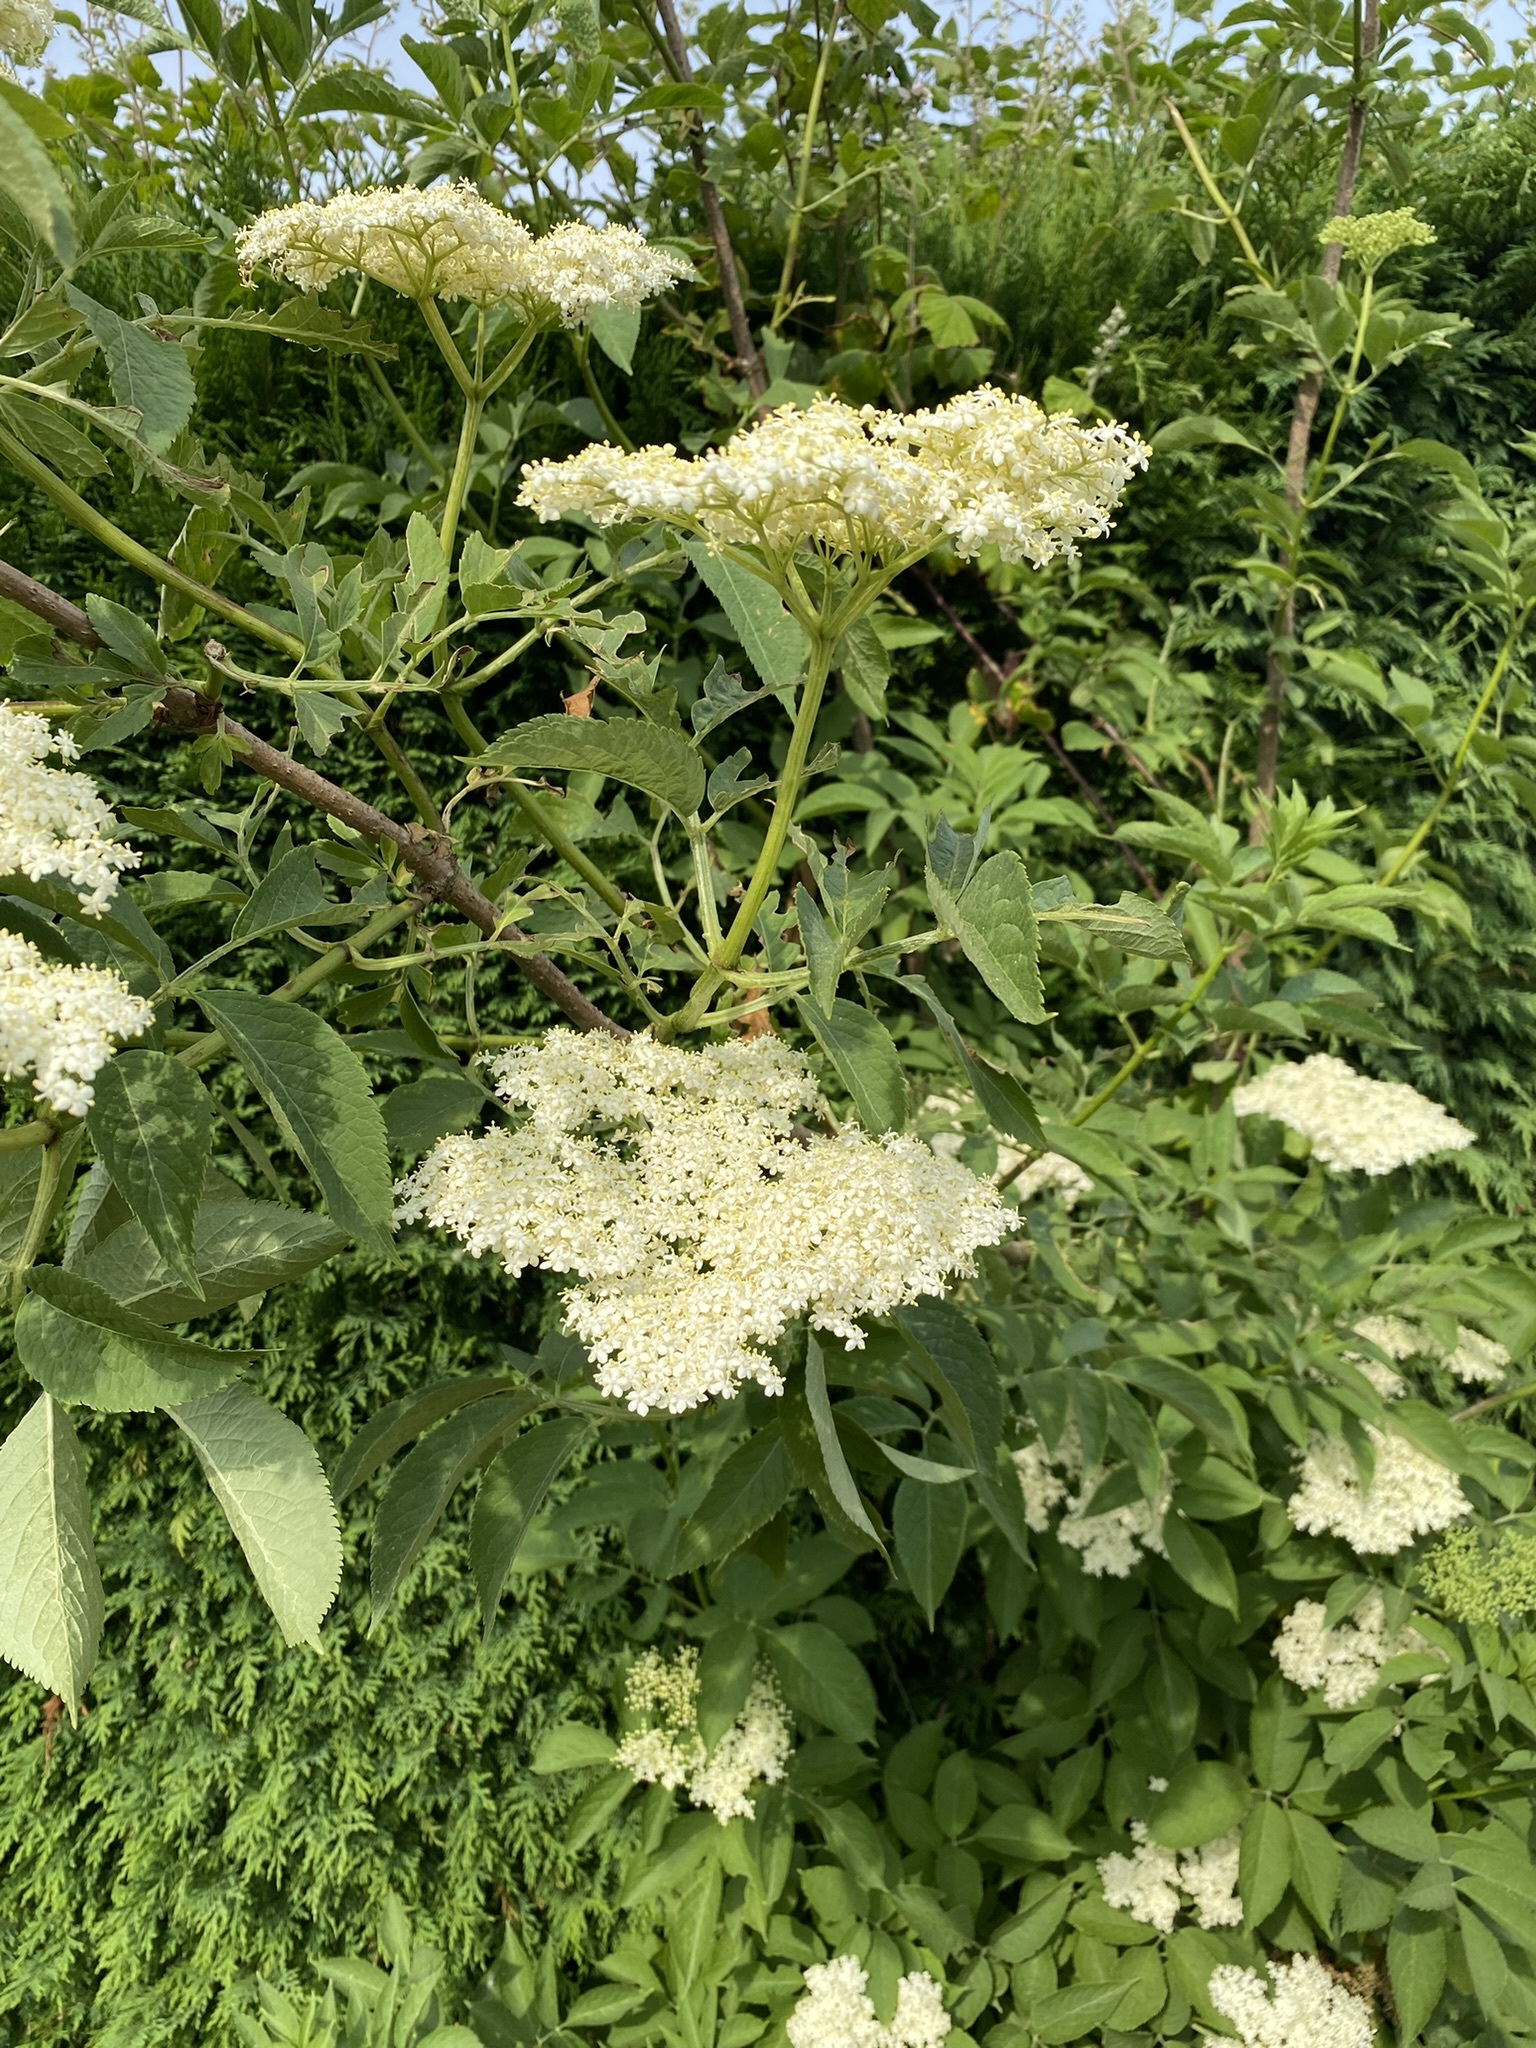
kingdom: Plantae
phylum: Tracheophyta
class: Magnoliopsida
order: Dipsacales
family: Viburnaceae
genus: Sambucus
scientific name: Sambucus nigra
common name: Elder
